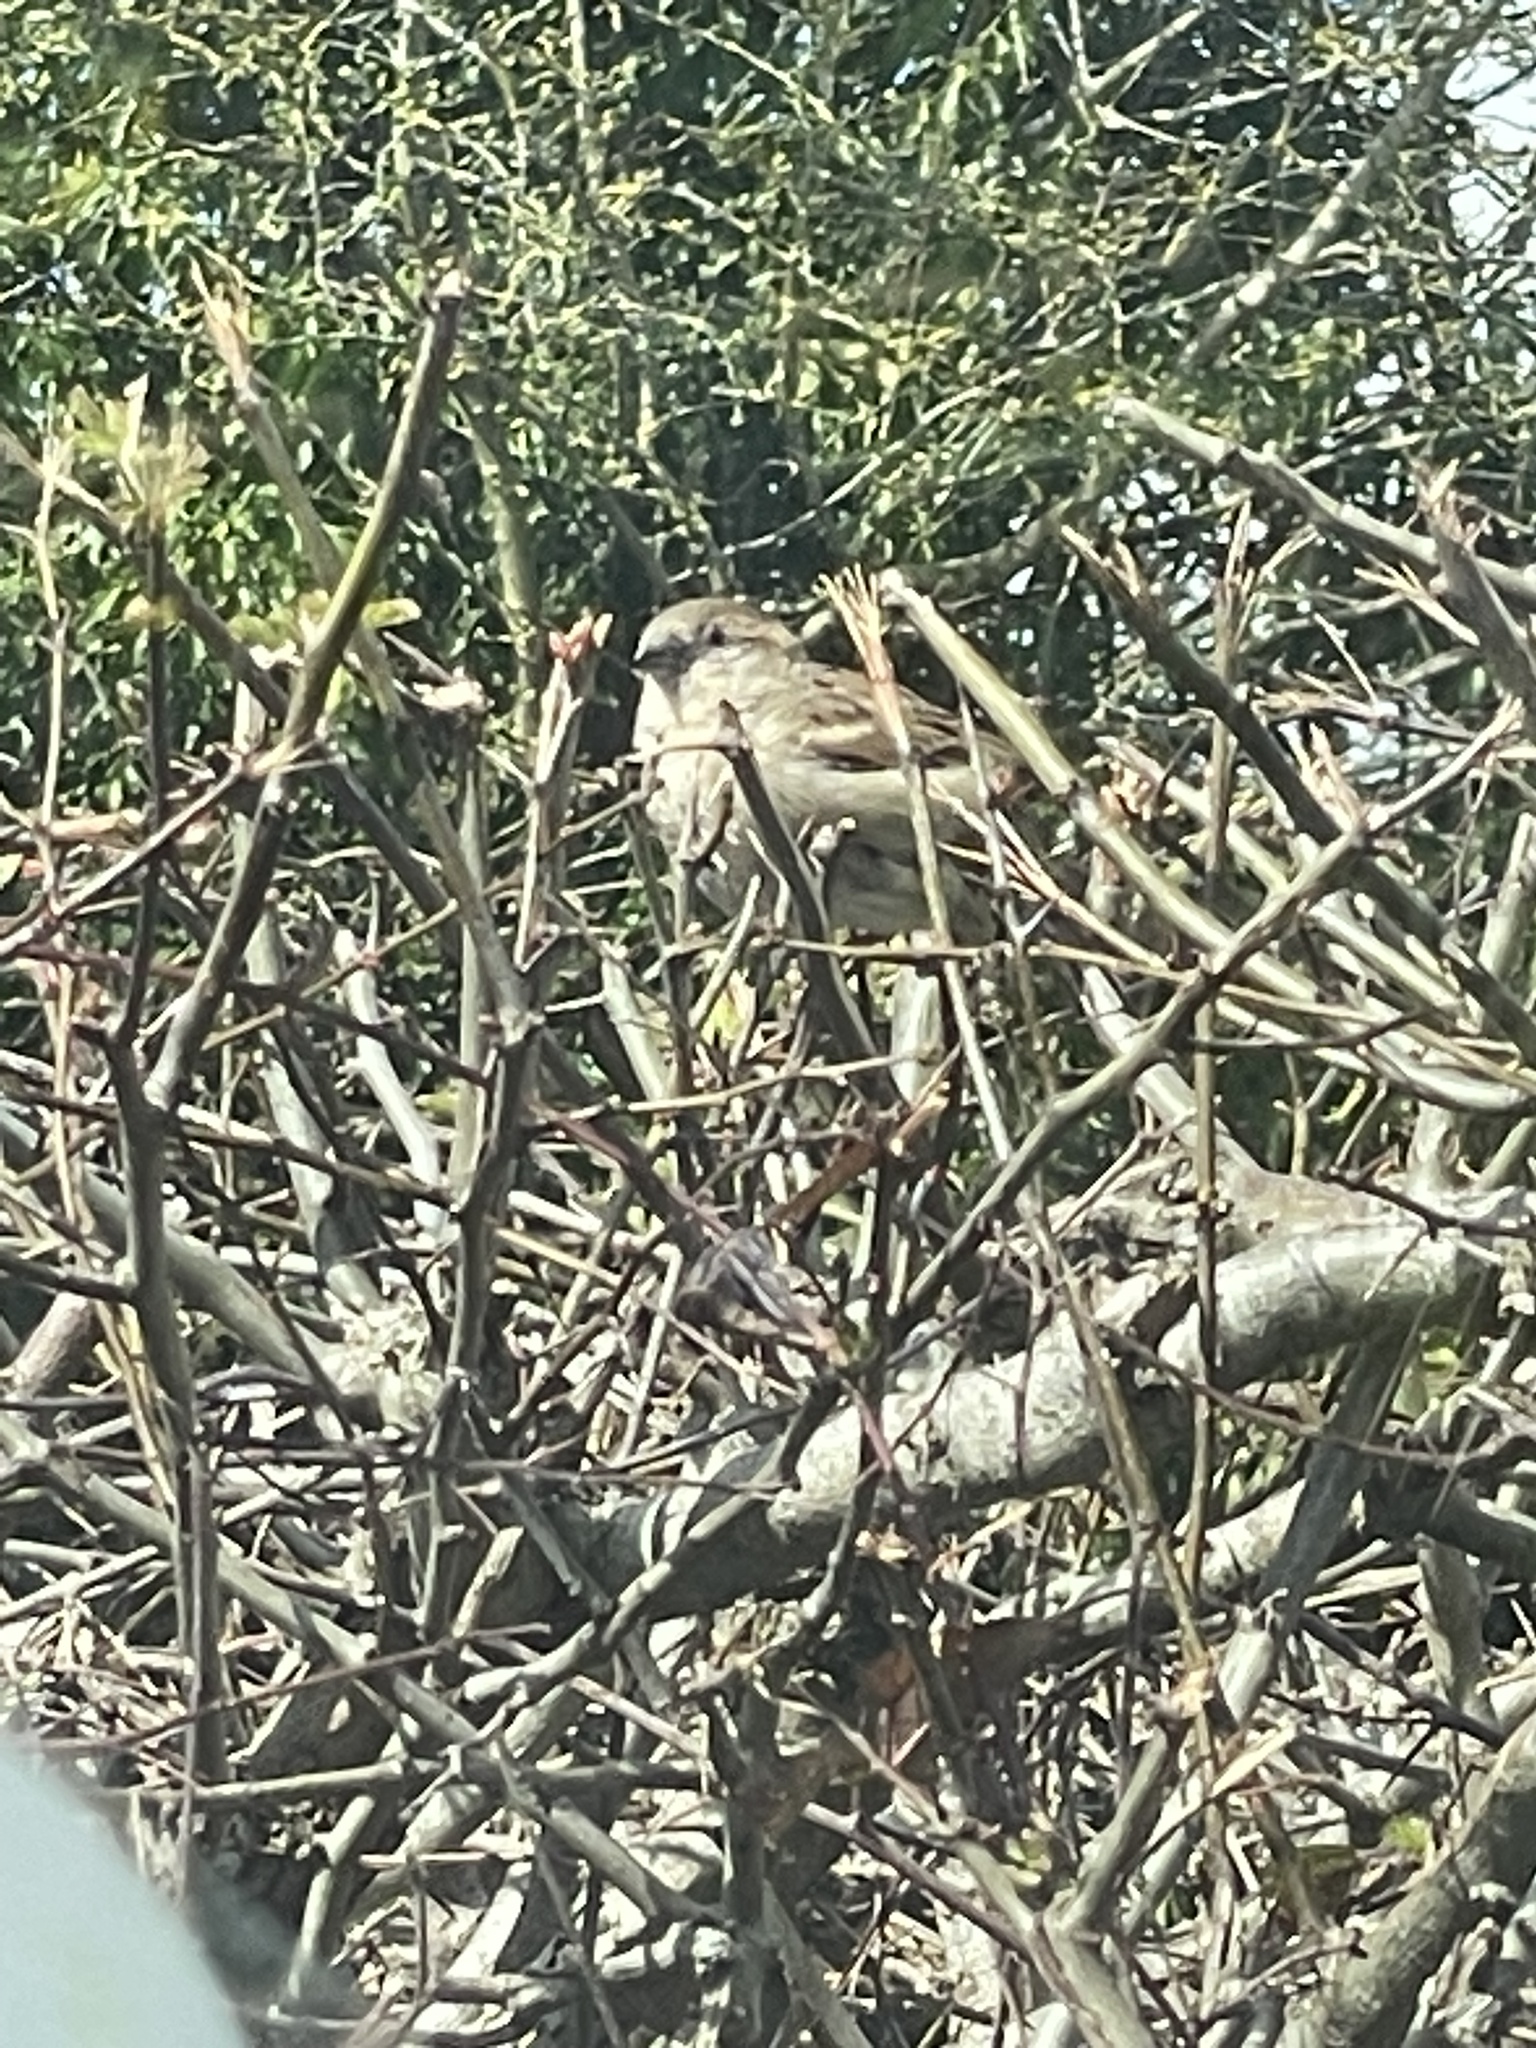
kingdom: Animalia
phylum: Chordata
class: Aves
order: Passeriformes
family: Passeridae
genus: Passer
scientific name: Passer domesticus
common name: House sparrow
